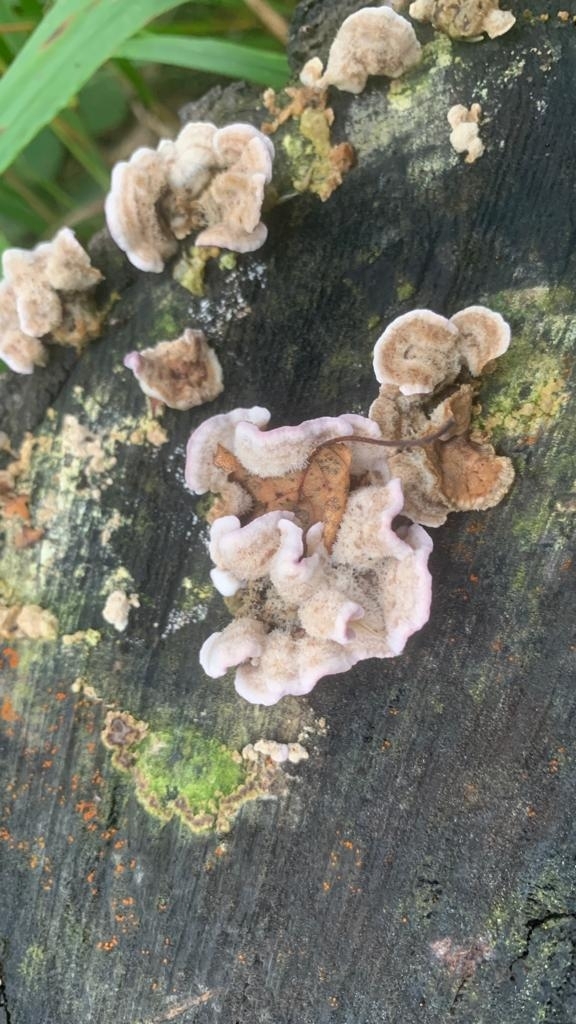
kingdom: Fungi
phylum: Basidiomycota
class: Agaricomycetes
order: Agaricales
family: Cyphellaceae
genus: Chondrostereum
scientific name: Chondrostereum purpureum
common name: Silver leaf disease
